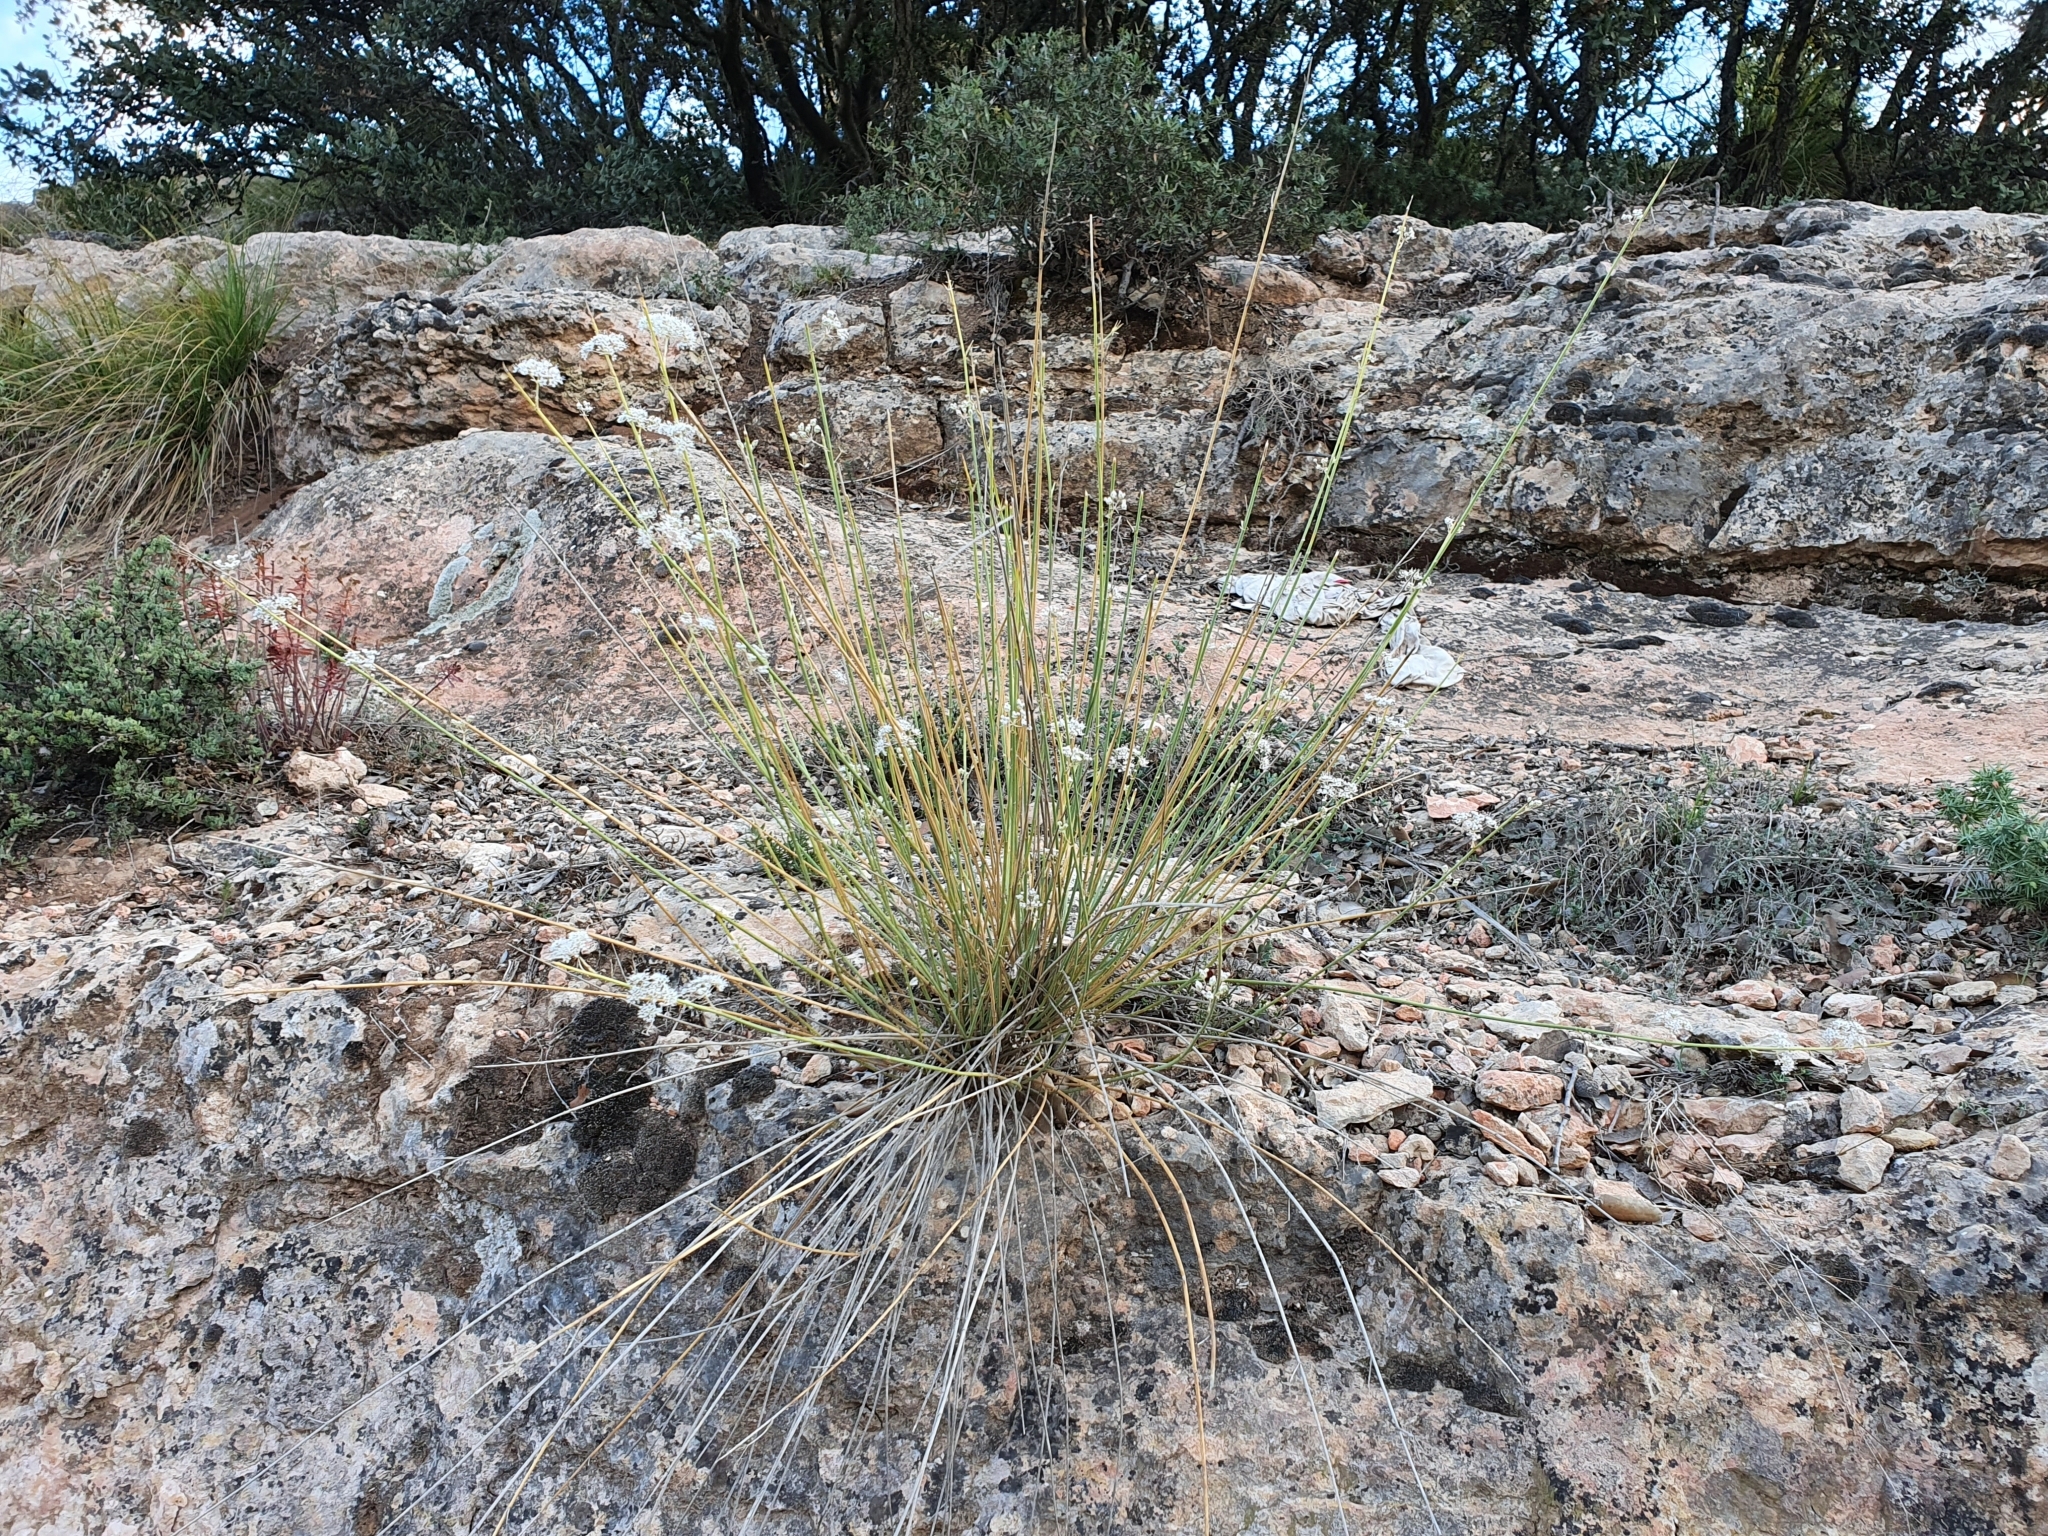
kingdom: Plantae
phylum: Tracheophyta
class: Magnoliopsida
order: Apiales
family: Apiaceae
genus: Deverra
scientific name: Deverra scoparia
